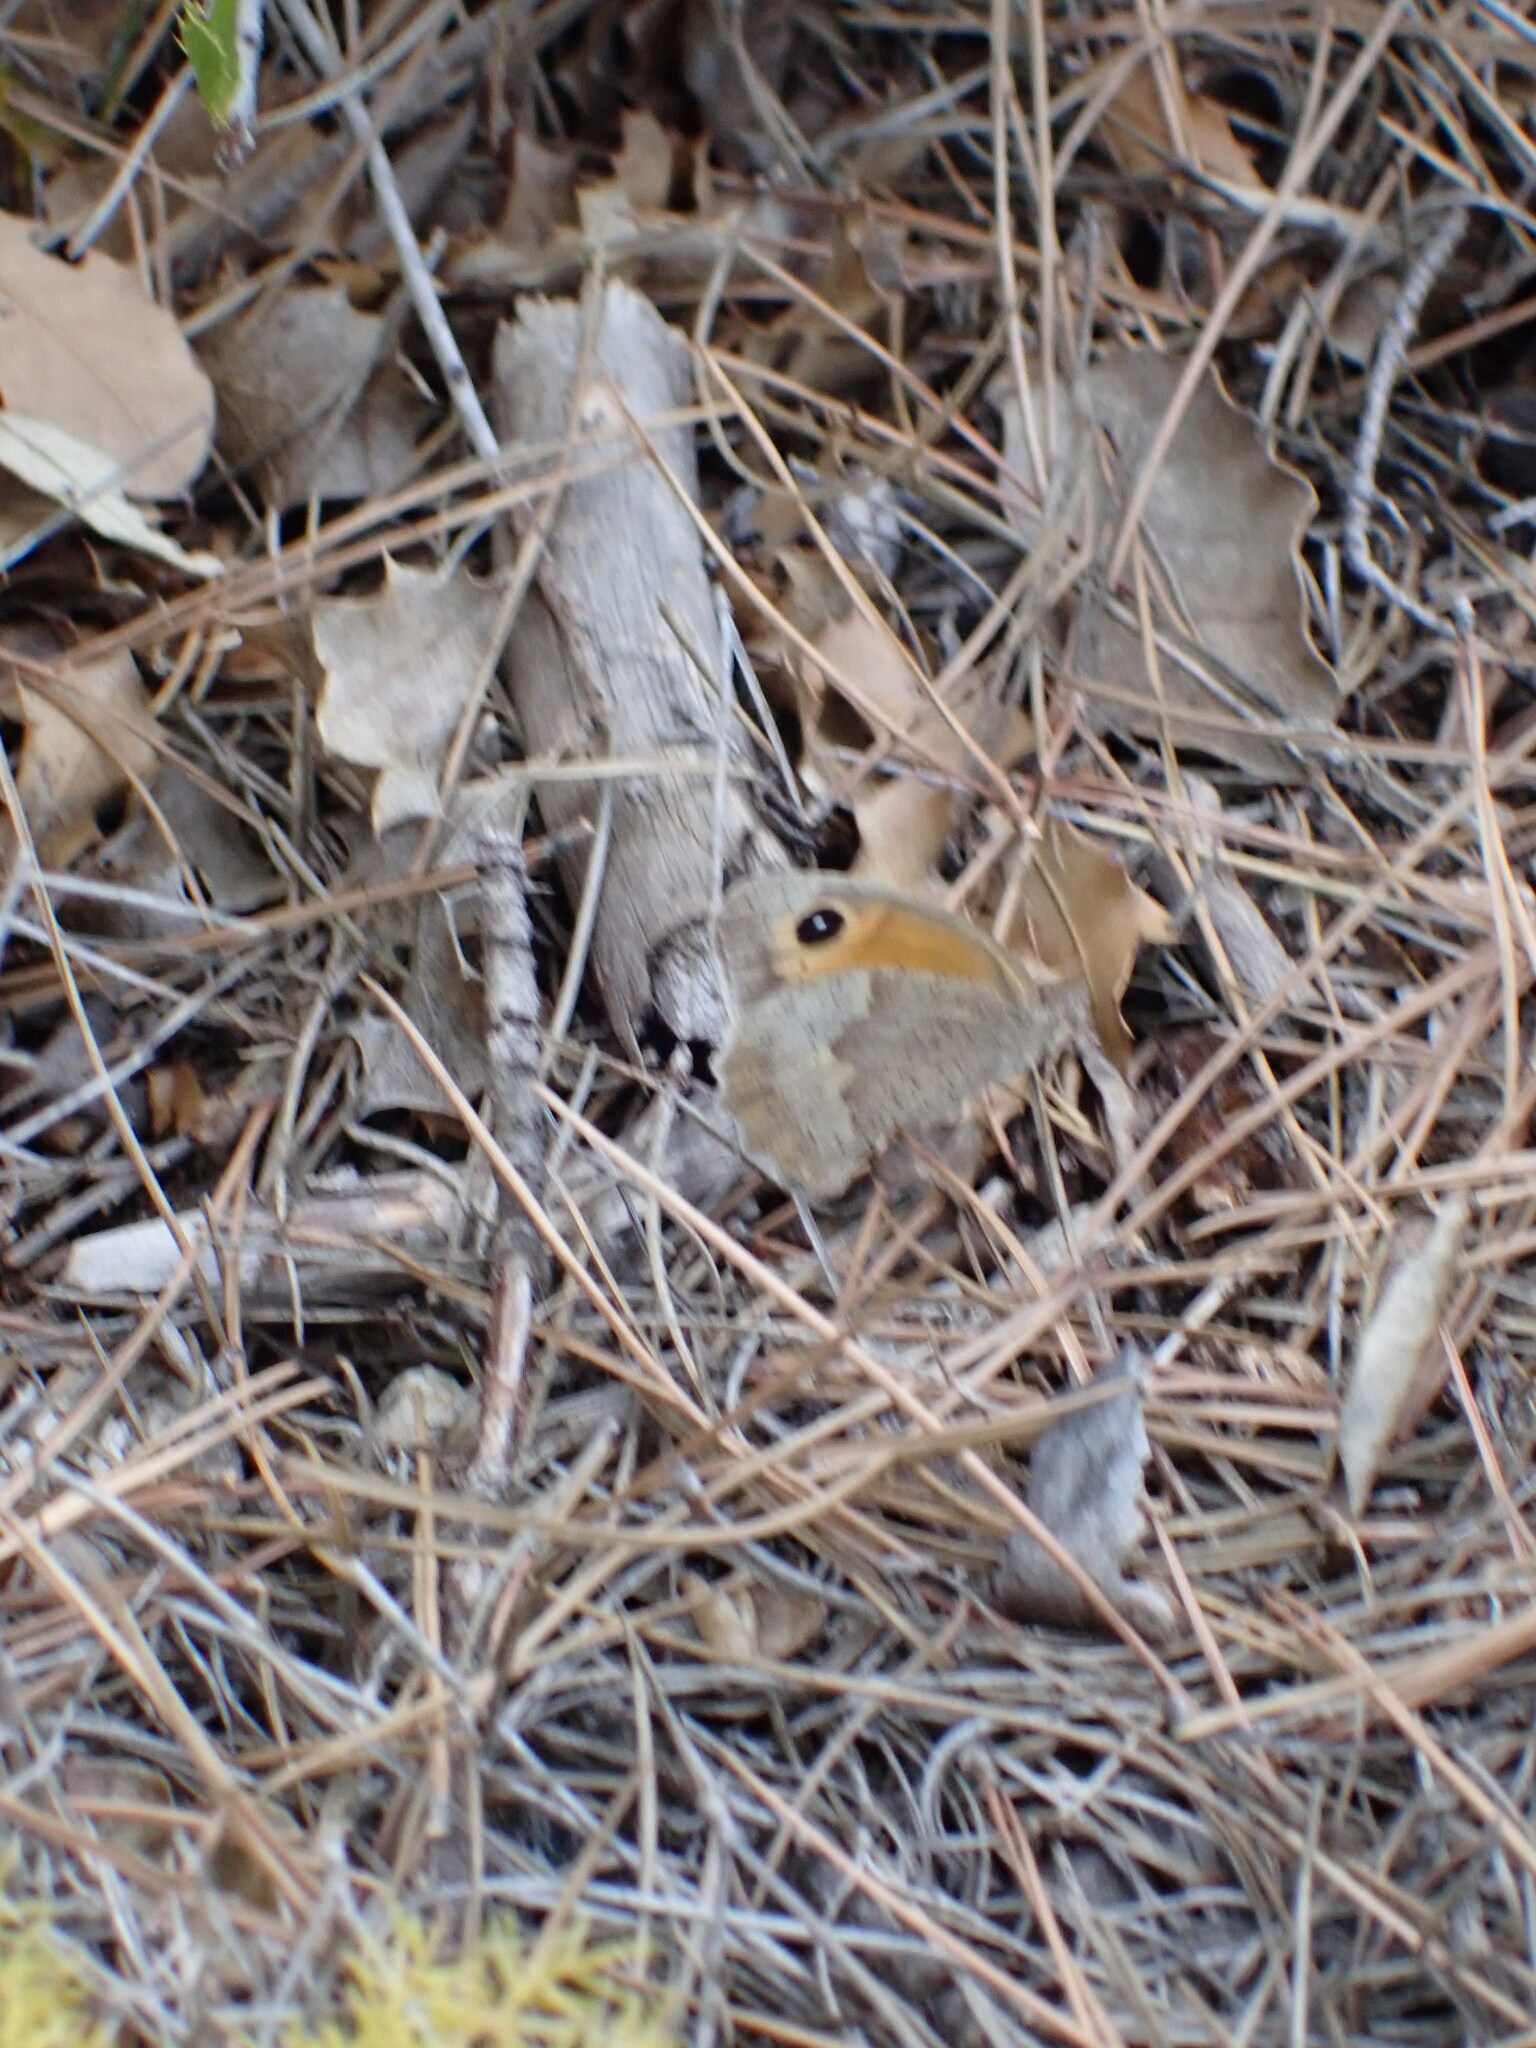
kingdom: Animalia
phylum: Arthropoda
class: Insecta
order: Lepidoptera
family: Nymphalidae
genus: Maniola
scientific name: Maniola jurtina
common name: Meadow brown
